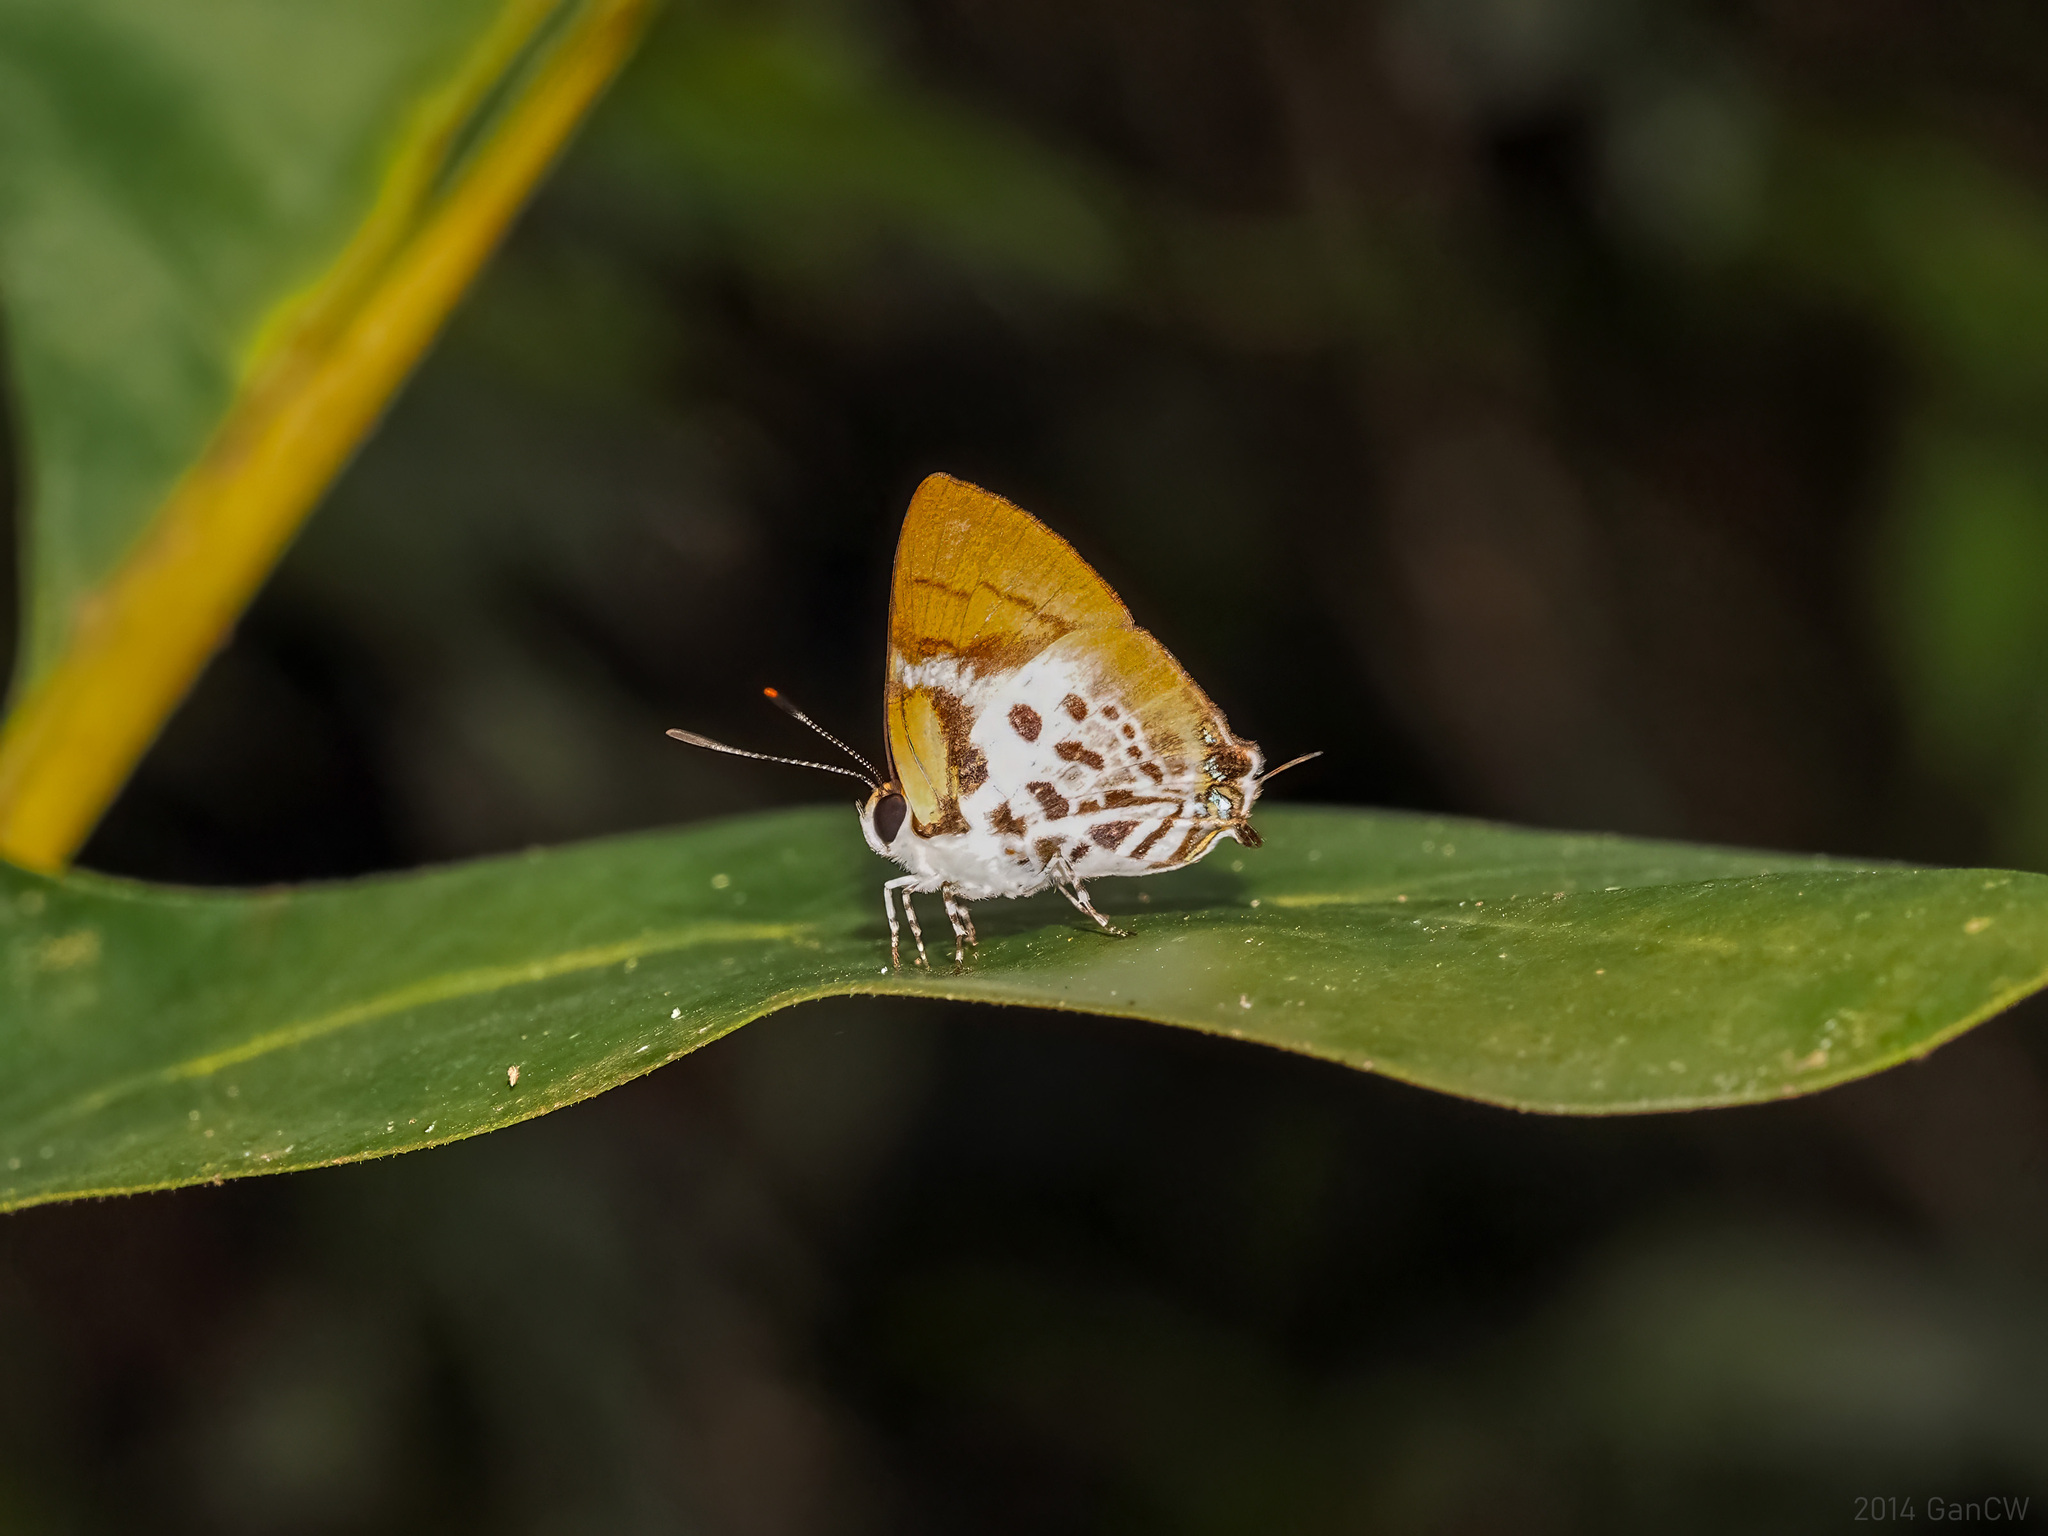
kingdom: Animalia
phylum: Arthropoda
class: Insecta
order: Lepidoptera
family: Lycaenidae
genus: Araotes
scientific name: Araotes lapithis
